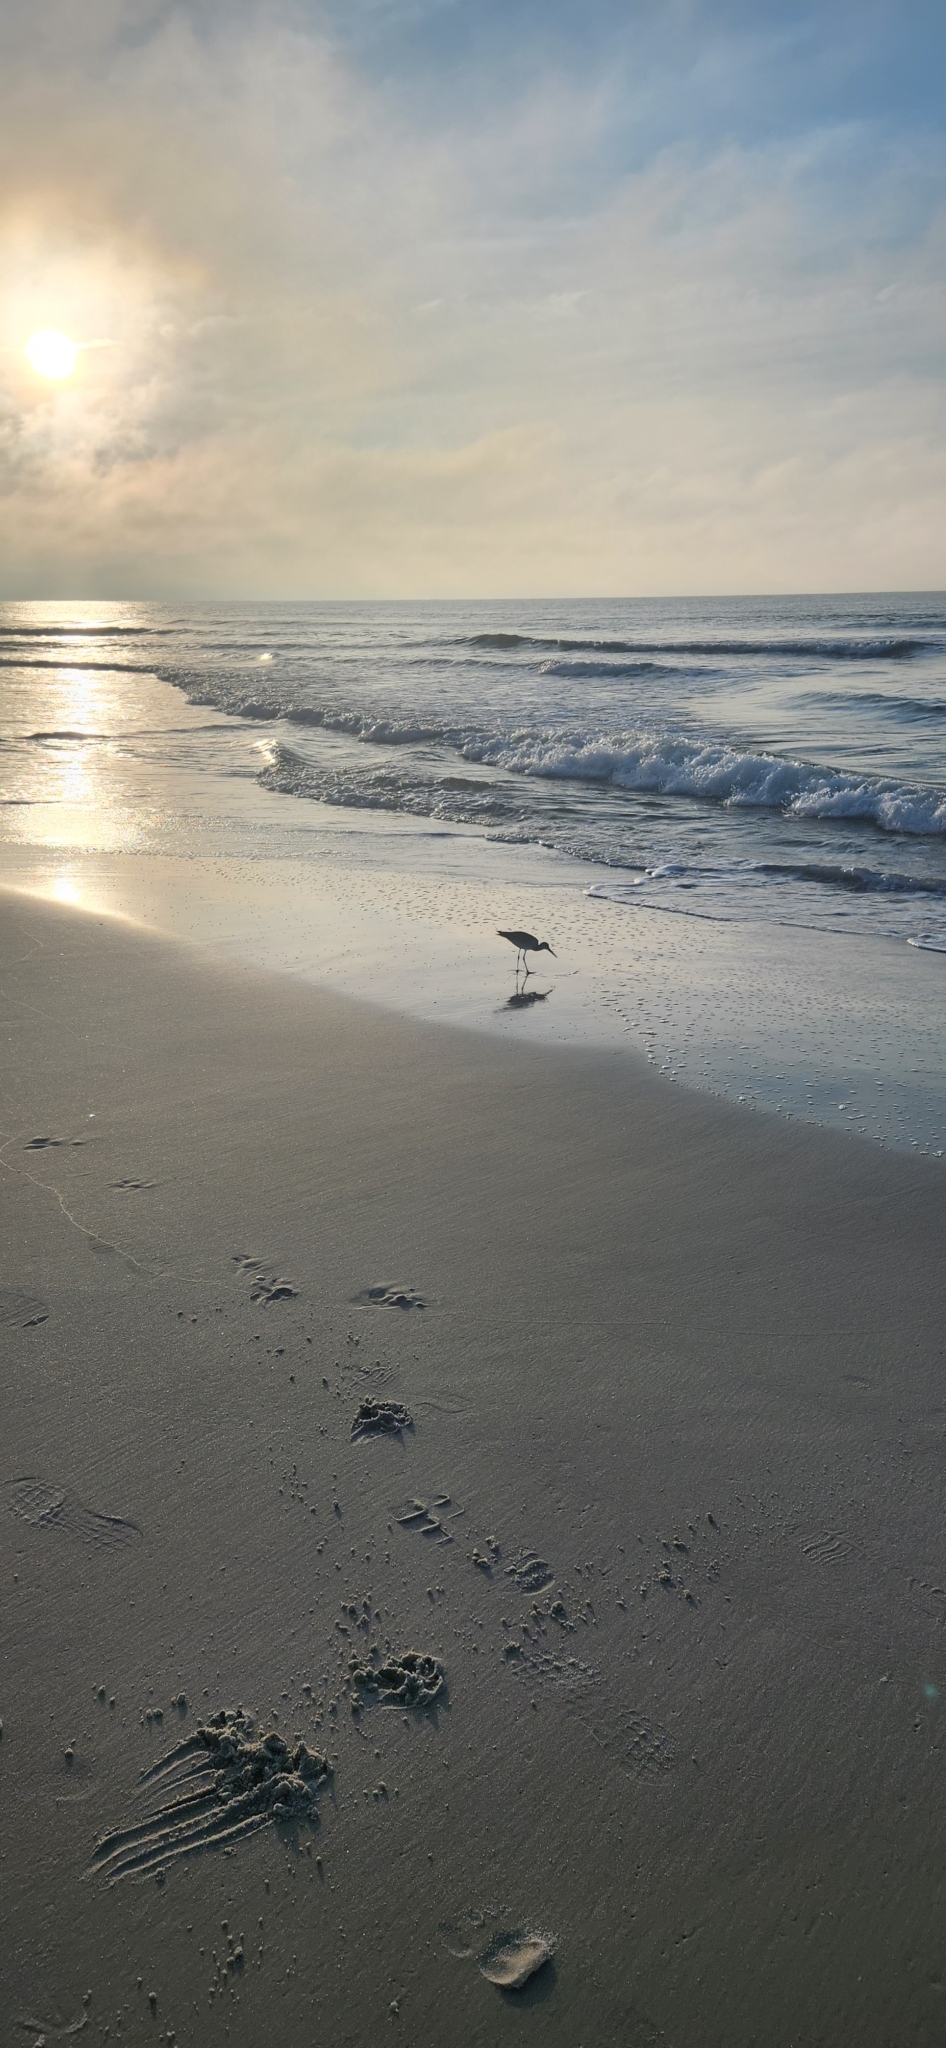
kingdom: Animalia
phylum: Chordata
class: Aves
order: Charadriiformes
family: Scolopacidae
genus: Tringa
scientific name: Tringa semipalmata
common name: Willet
